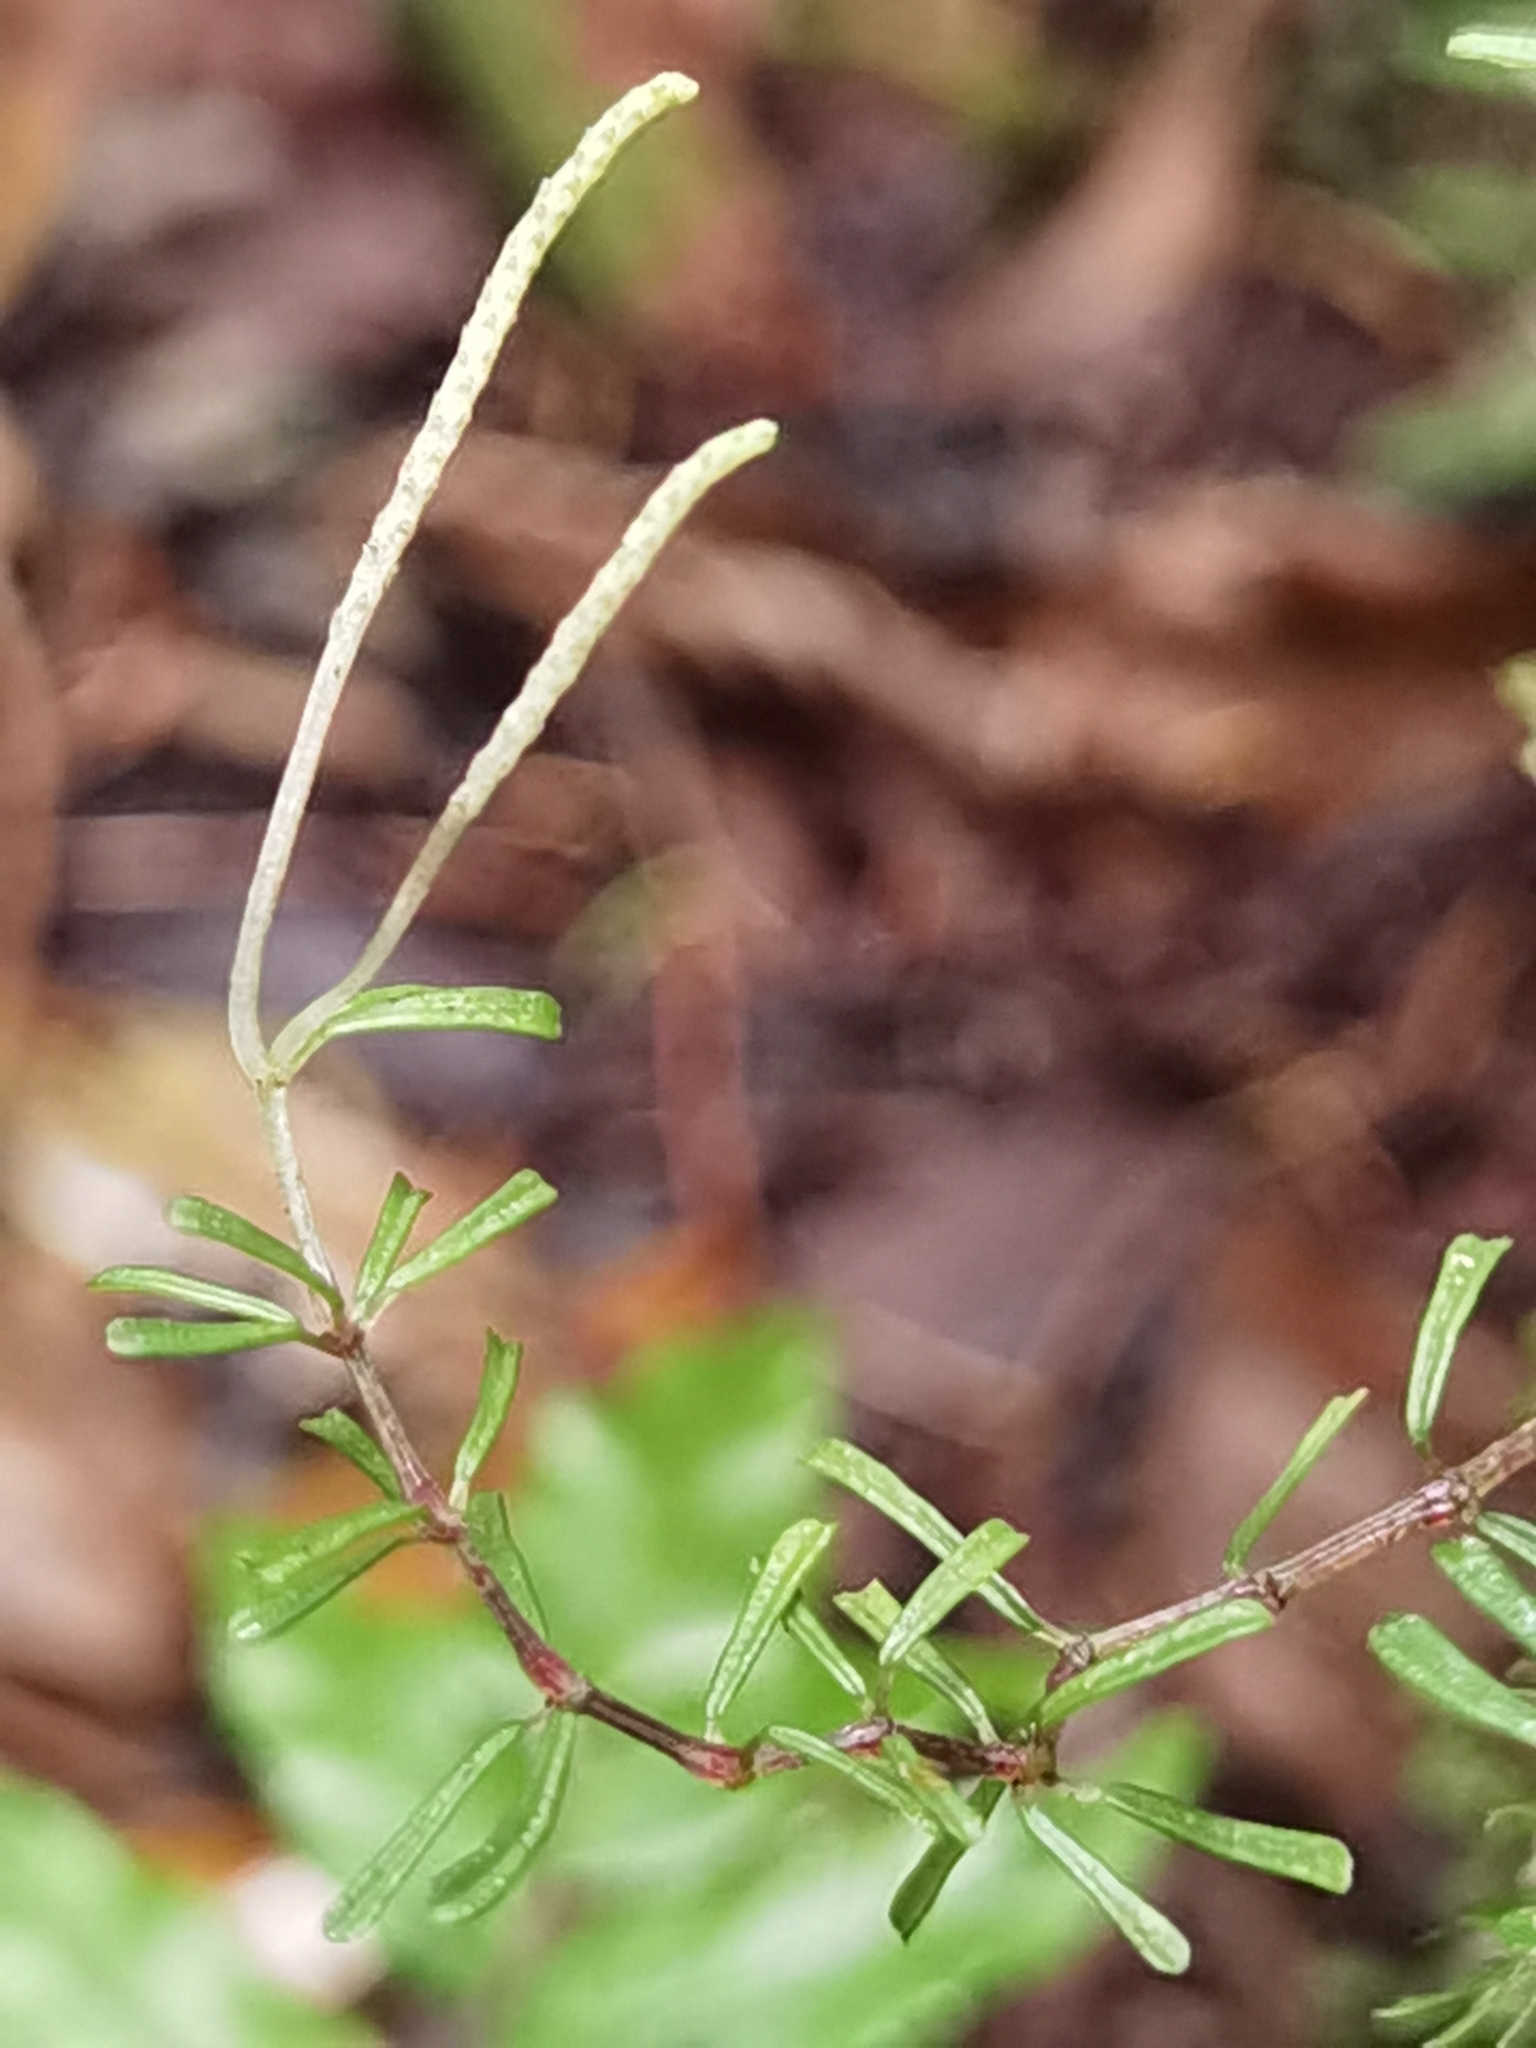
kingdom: Plantae
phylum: Tracheophyta
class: Magnoliopsida
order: Piperales
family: Piperaceae
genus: Peperomia
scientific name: Peperomia pittieri
